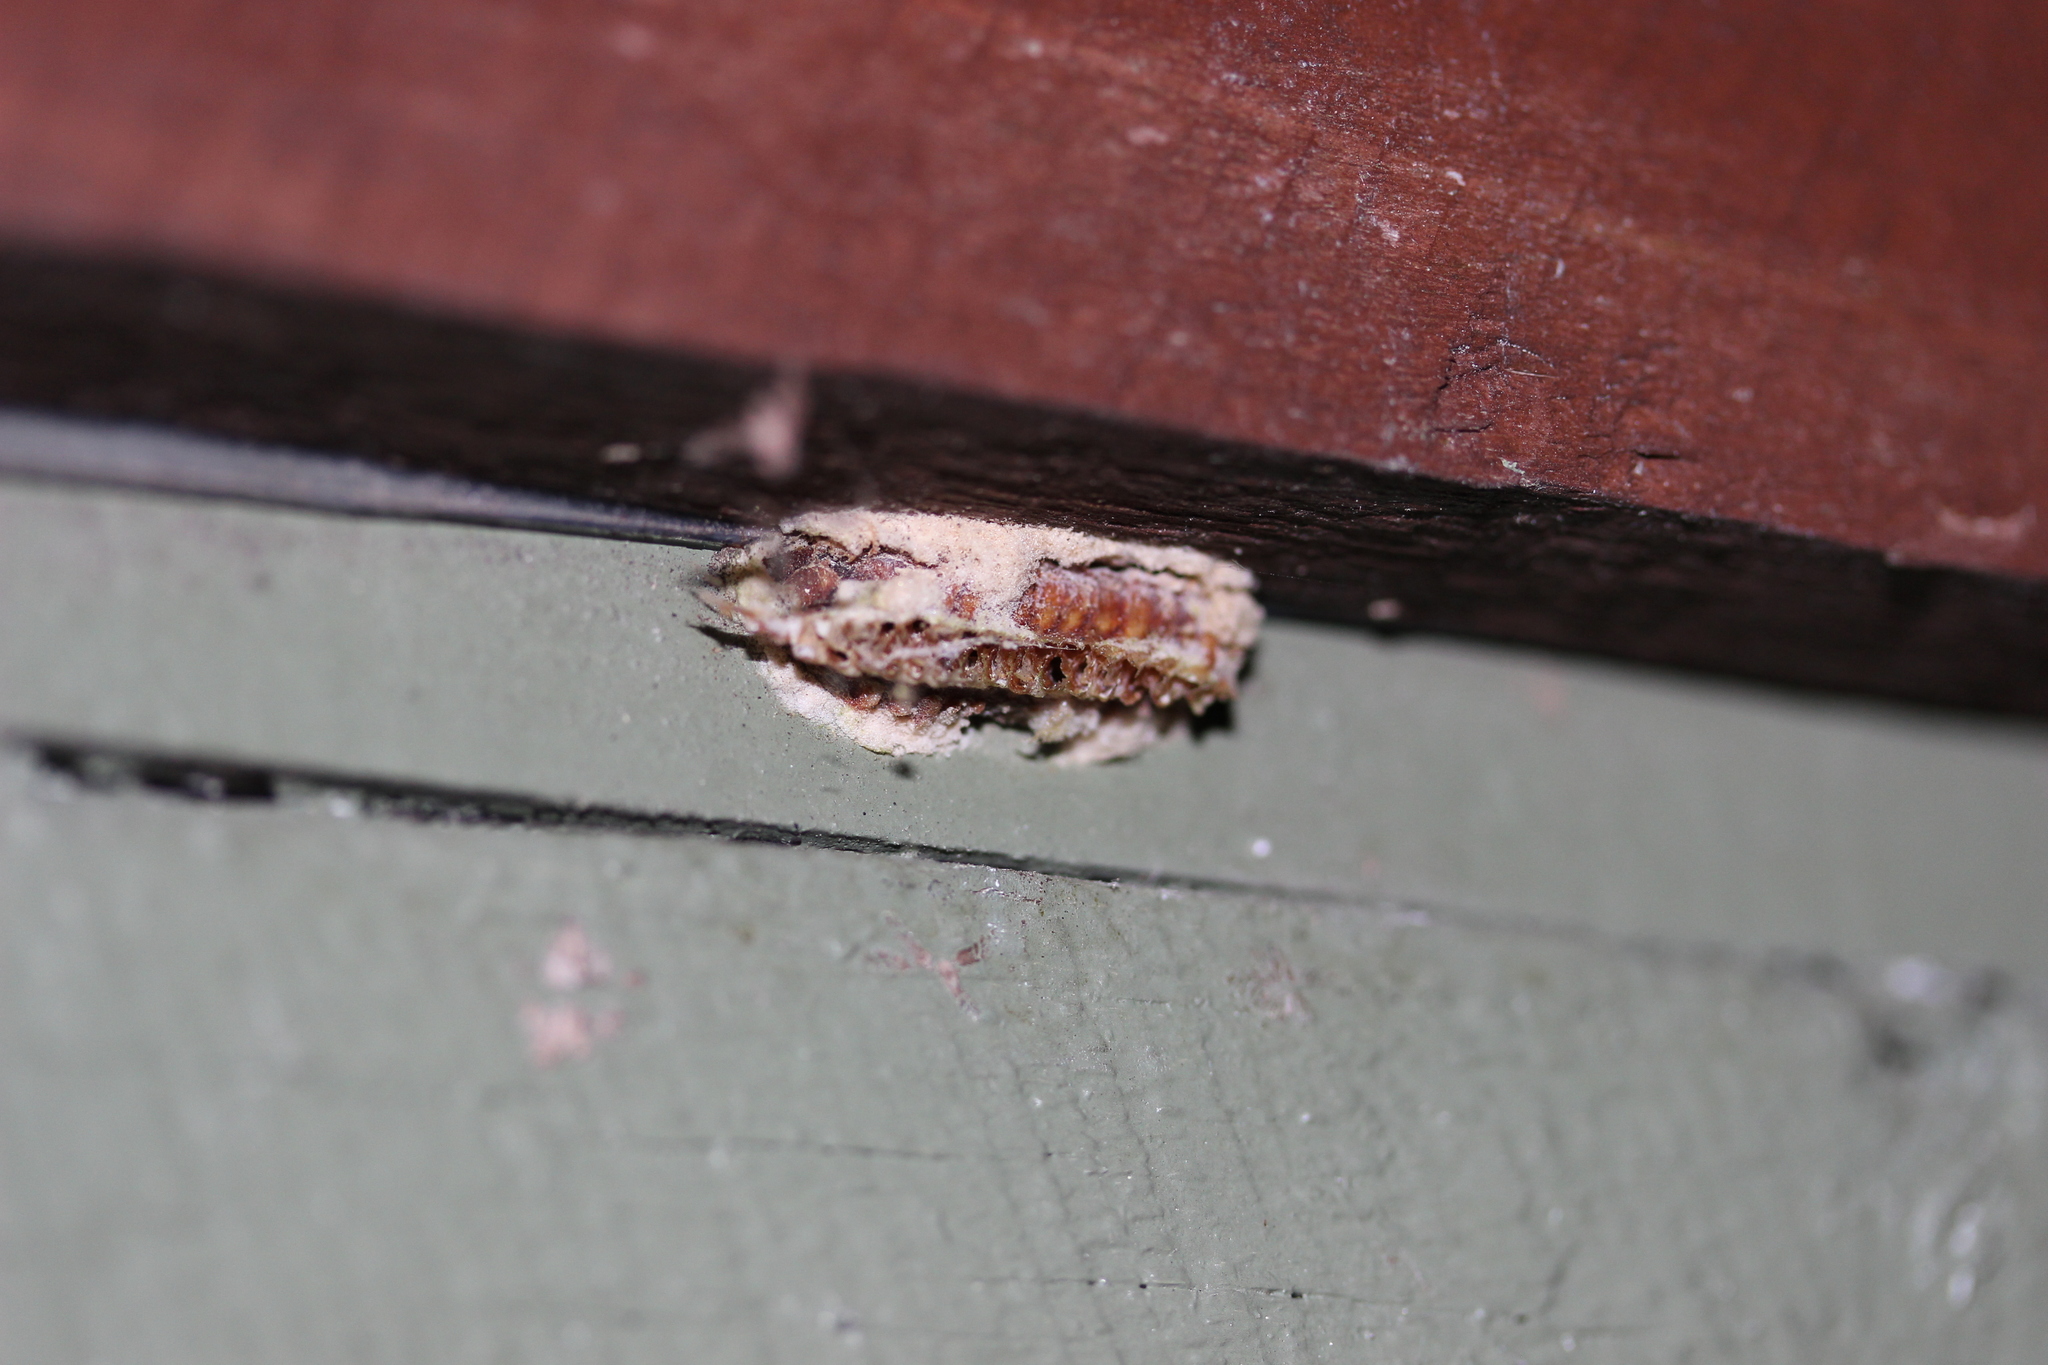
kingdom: Animalia
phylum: Arthropoda
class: Insecta
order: Mantodea
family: Miomantidae
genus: Miomantis
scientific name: Miomantis caffra
